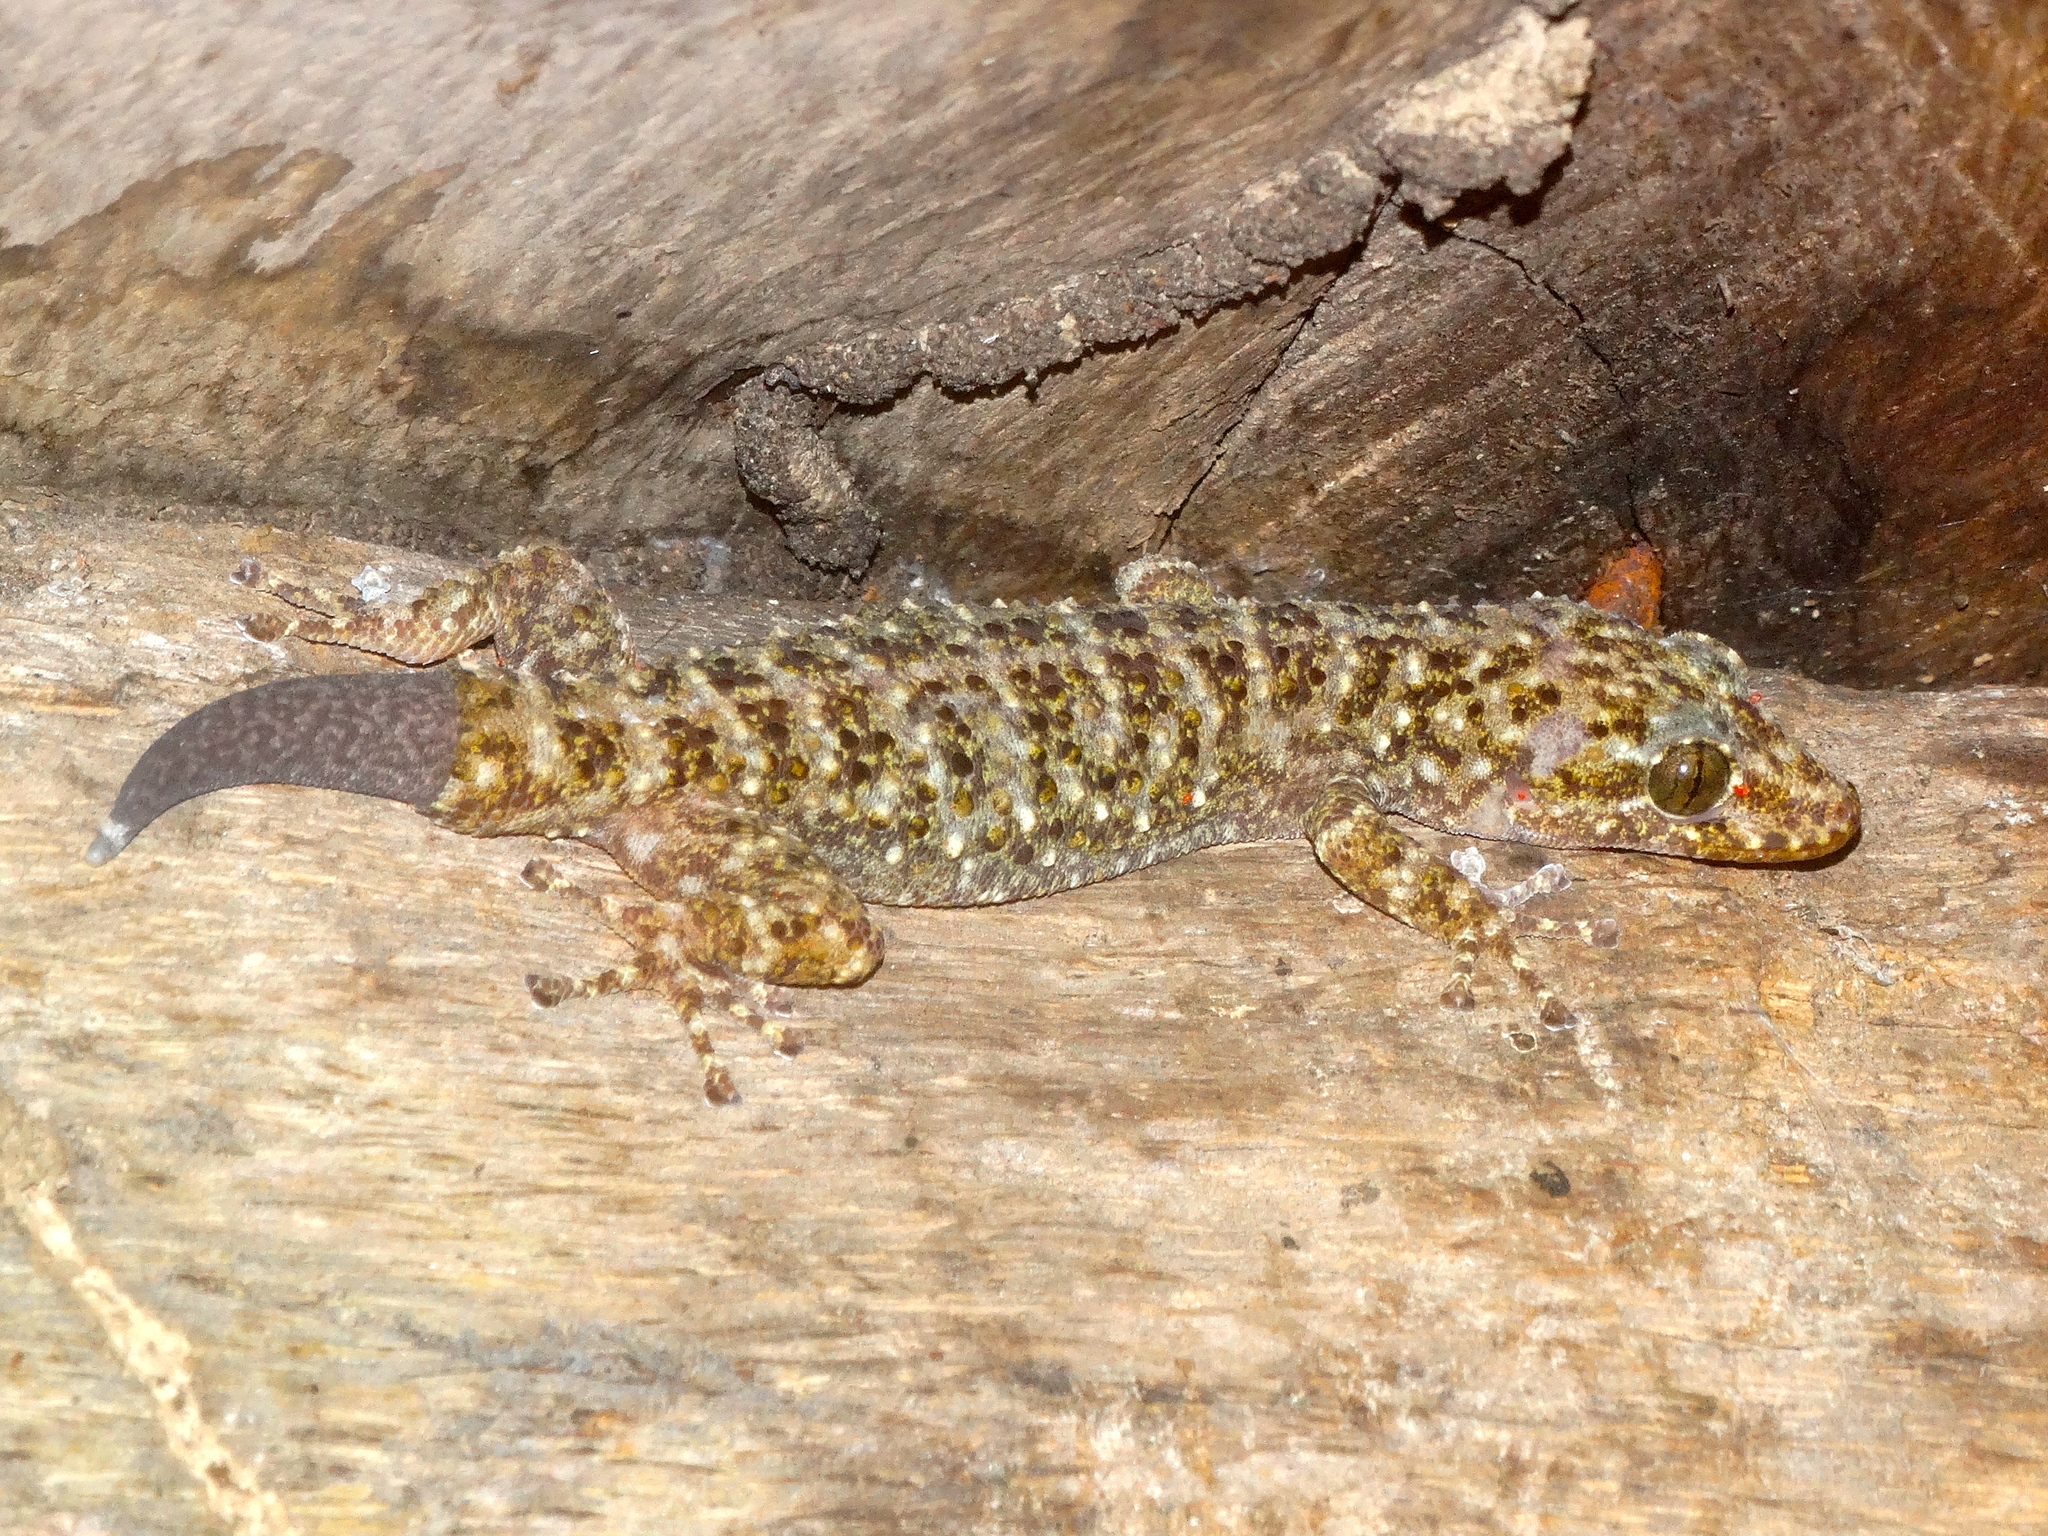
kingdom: Animalia
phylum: Chordata
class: Squamata
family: Phyllodactylidae
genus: Phyllodactylus
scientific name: Phyllodactylus tuberculosus
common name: Yellowbelly  gecko
